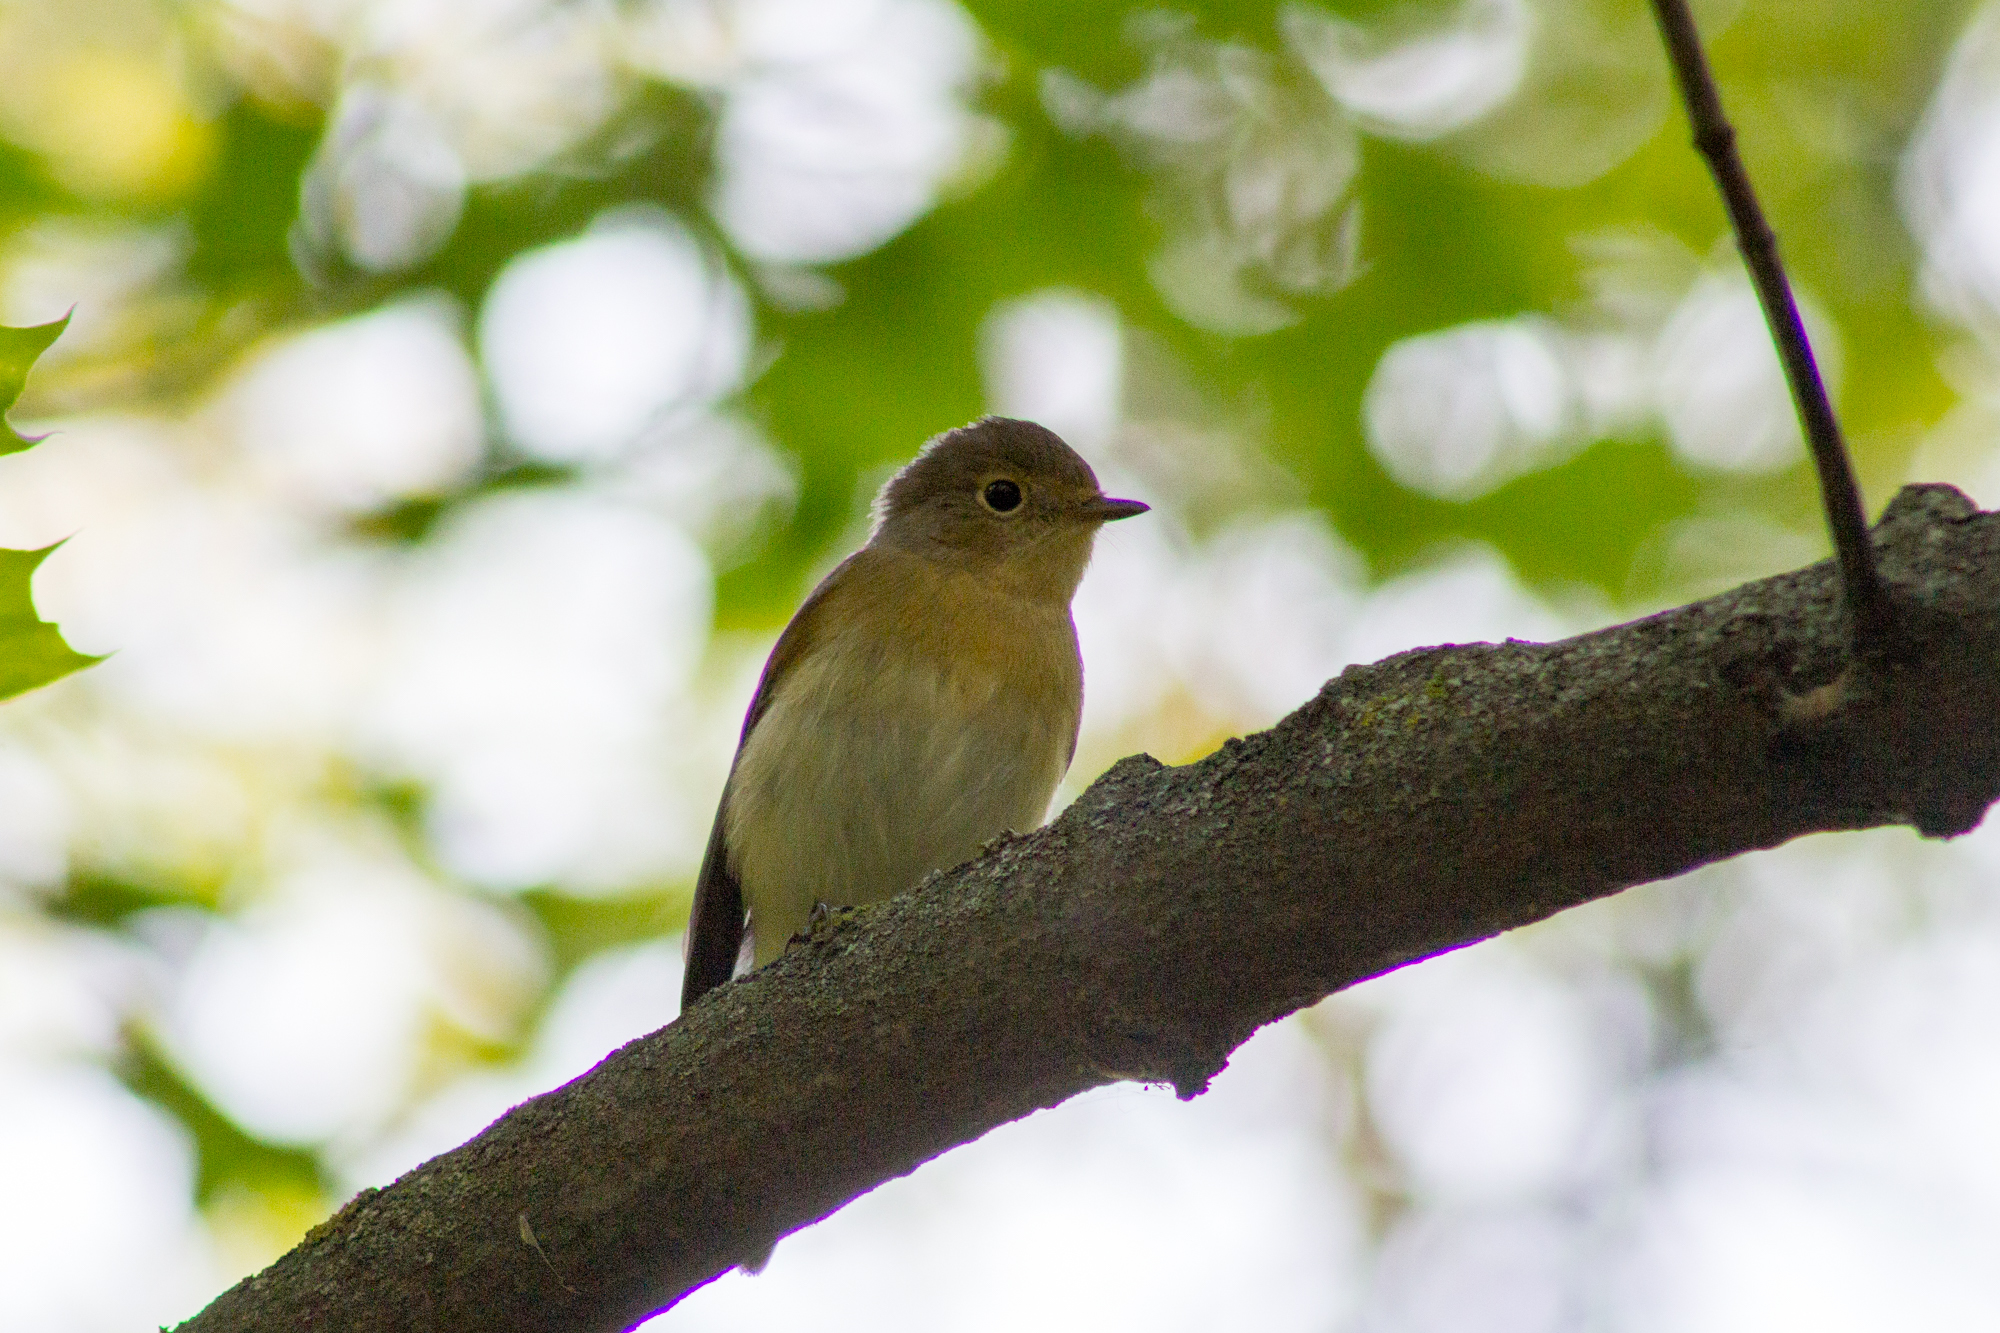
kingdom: Animalia
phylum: Chordata
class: Aves
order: Passeriformes
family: Muscicapidae
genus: Ficedula
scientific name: Ficedula parva
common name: Red-breasted flycatcher
